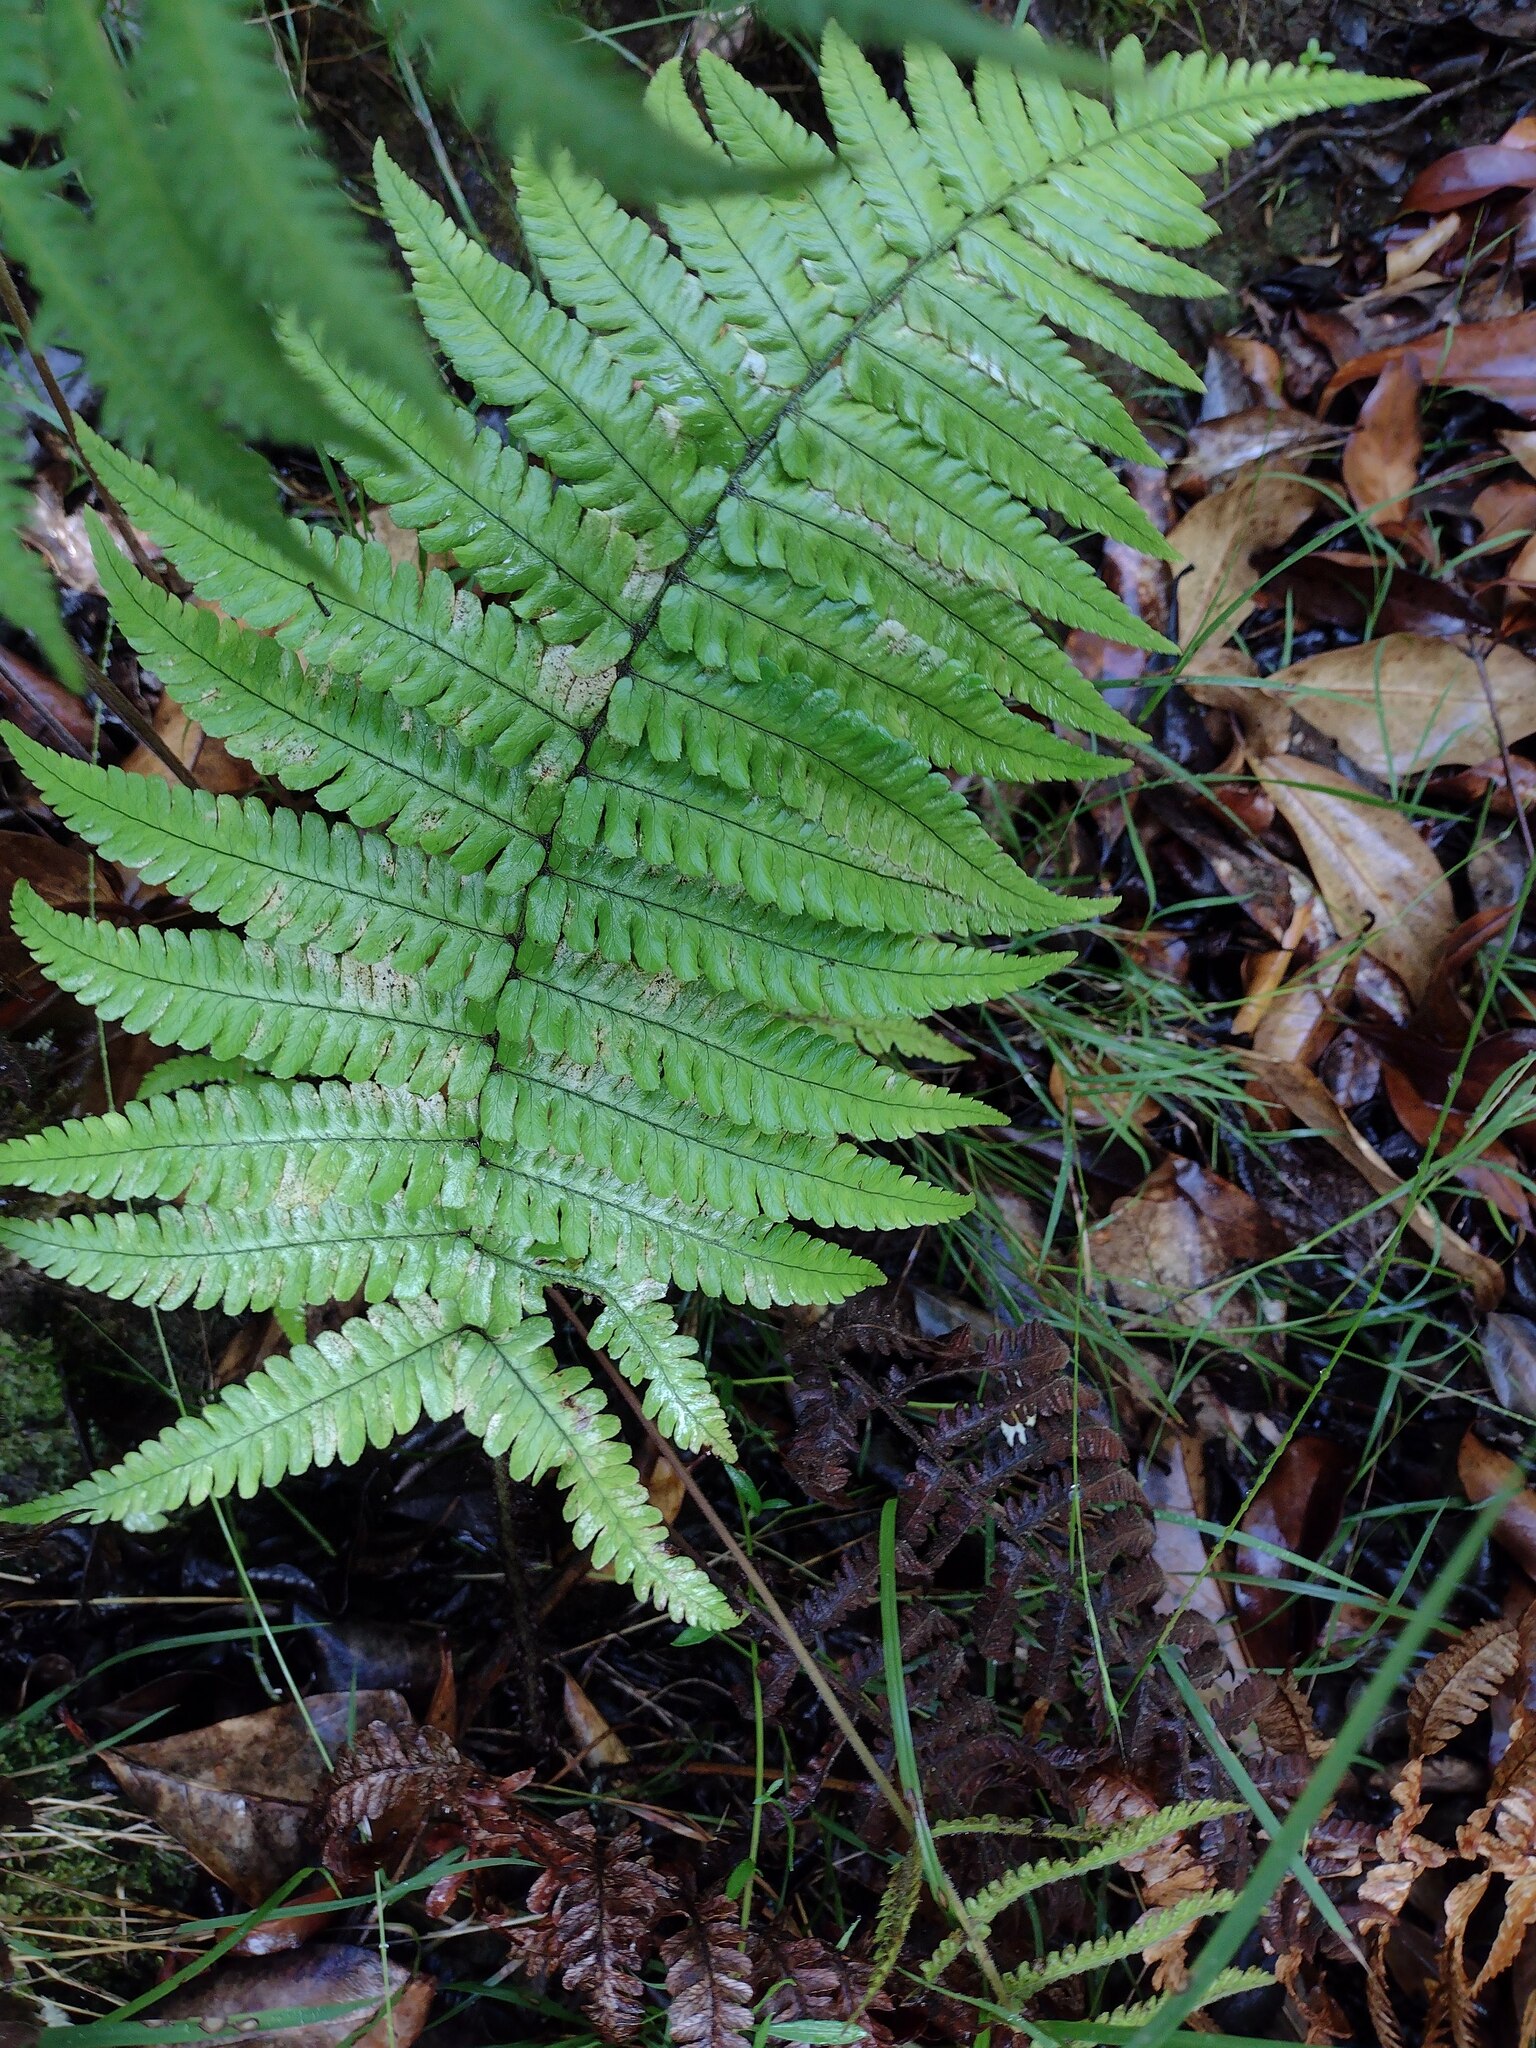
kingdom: Plantae
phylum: Tracheophyta
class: Polypodiopsida
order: Polypodiales
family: Dryopteridaceae
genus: Dryopteris
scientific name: Dryopteris fuscoatra
